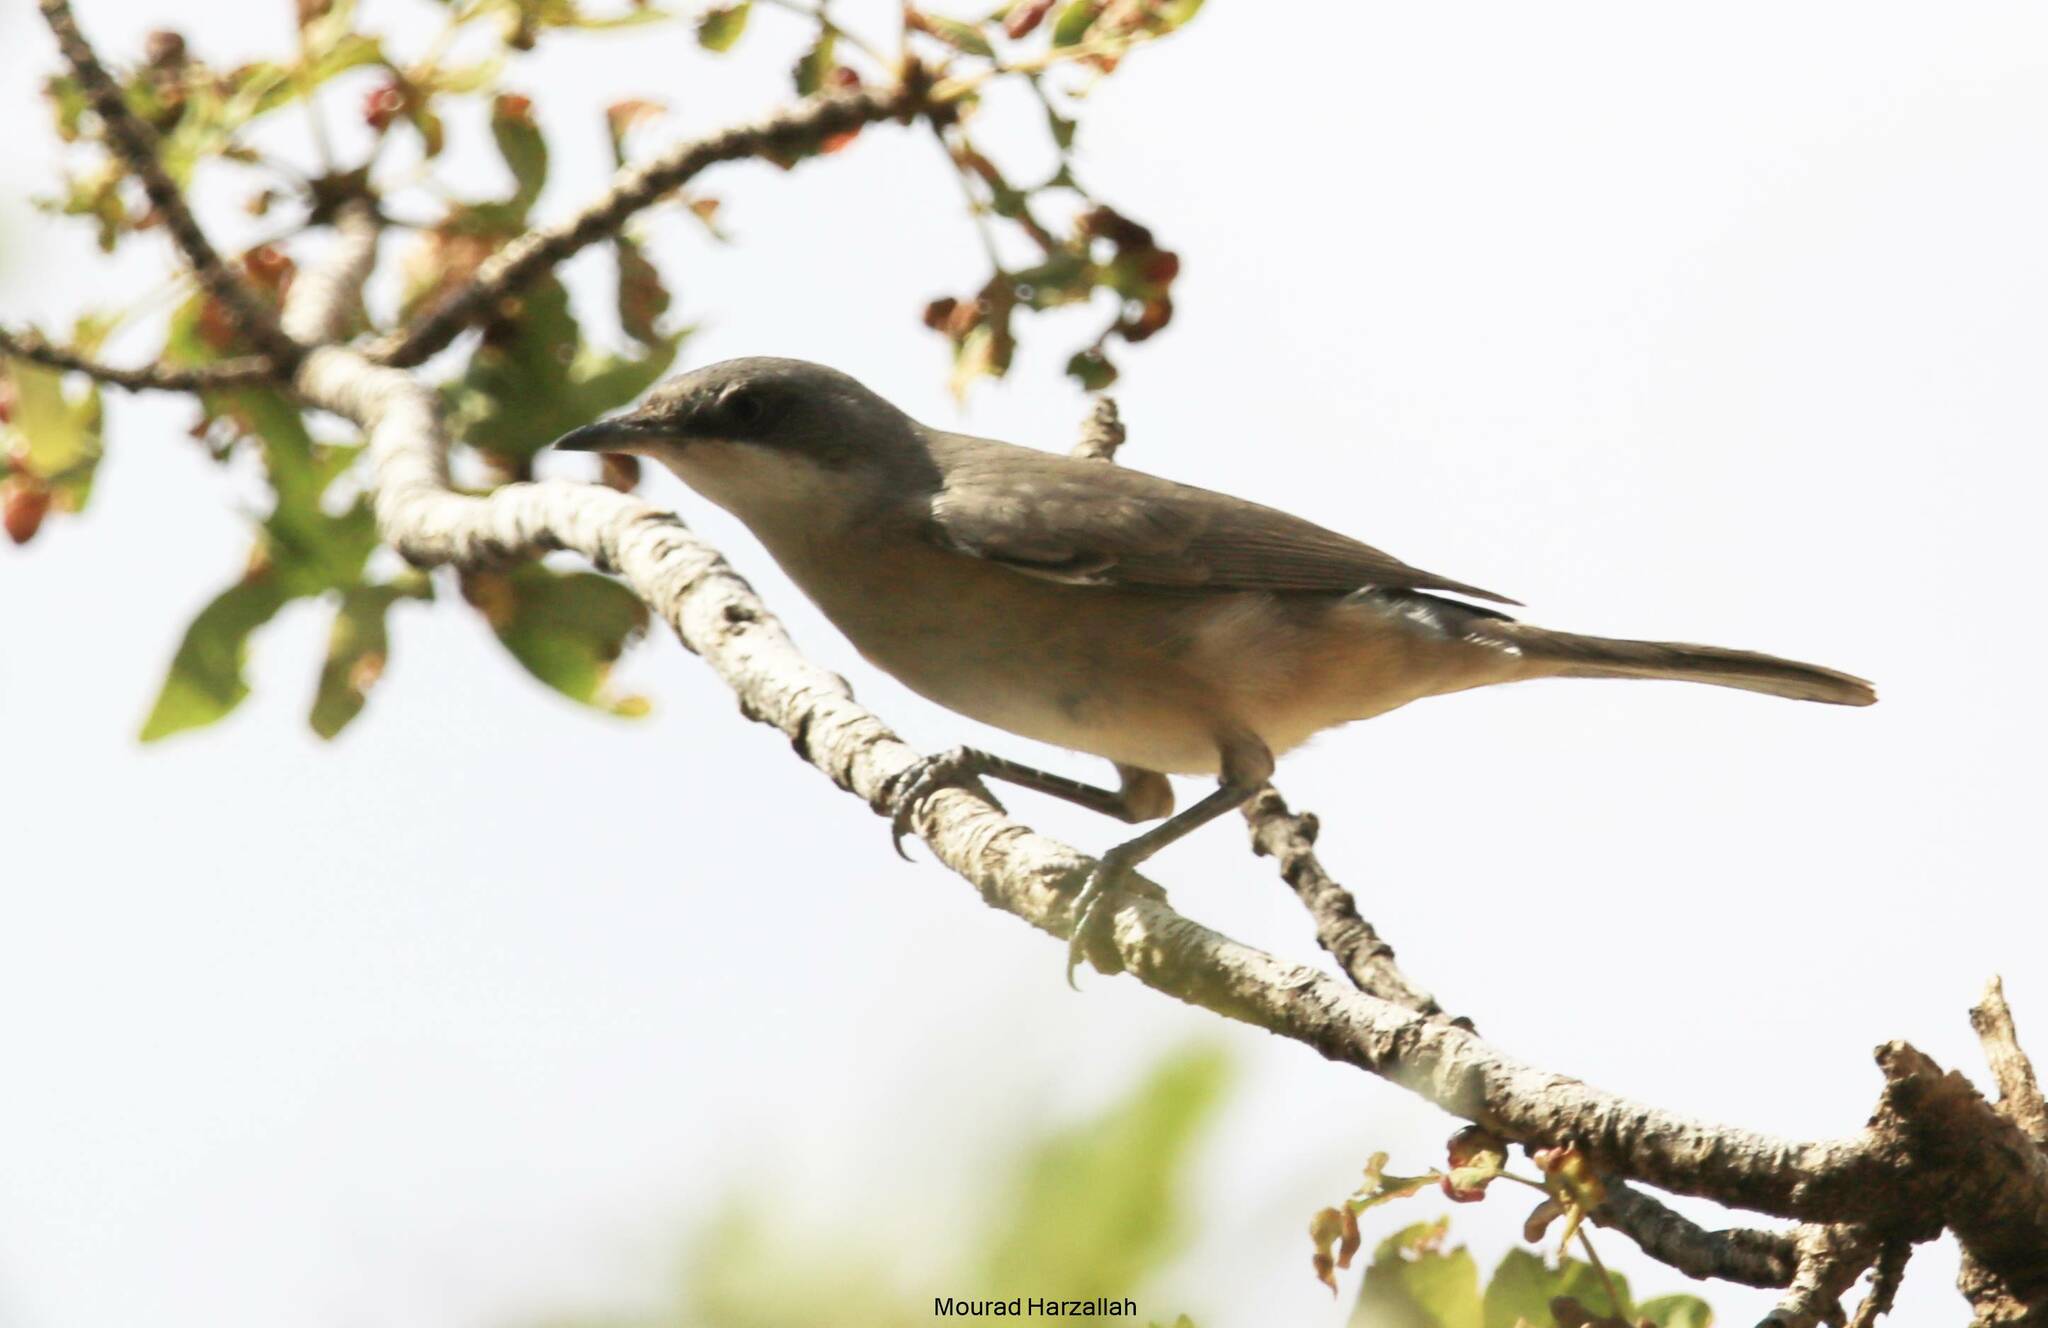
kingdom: Animalia
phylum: Chordata
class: Aves
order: Passeriformes
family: Sylviidae
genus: Sylvia
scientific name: Sylvia hortensis
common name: Orphean warbler
